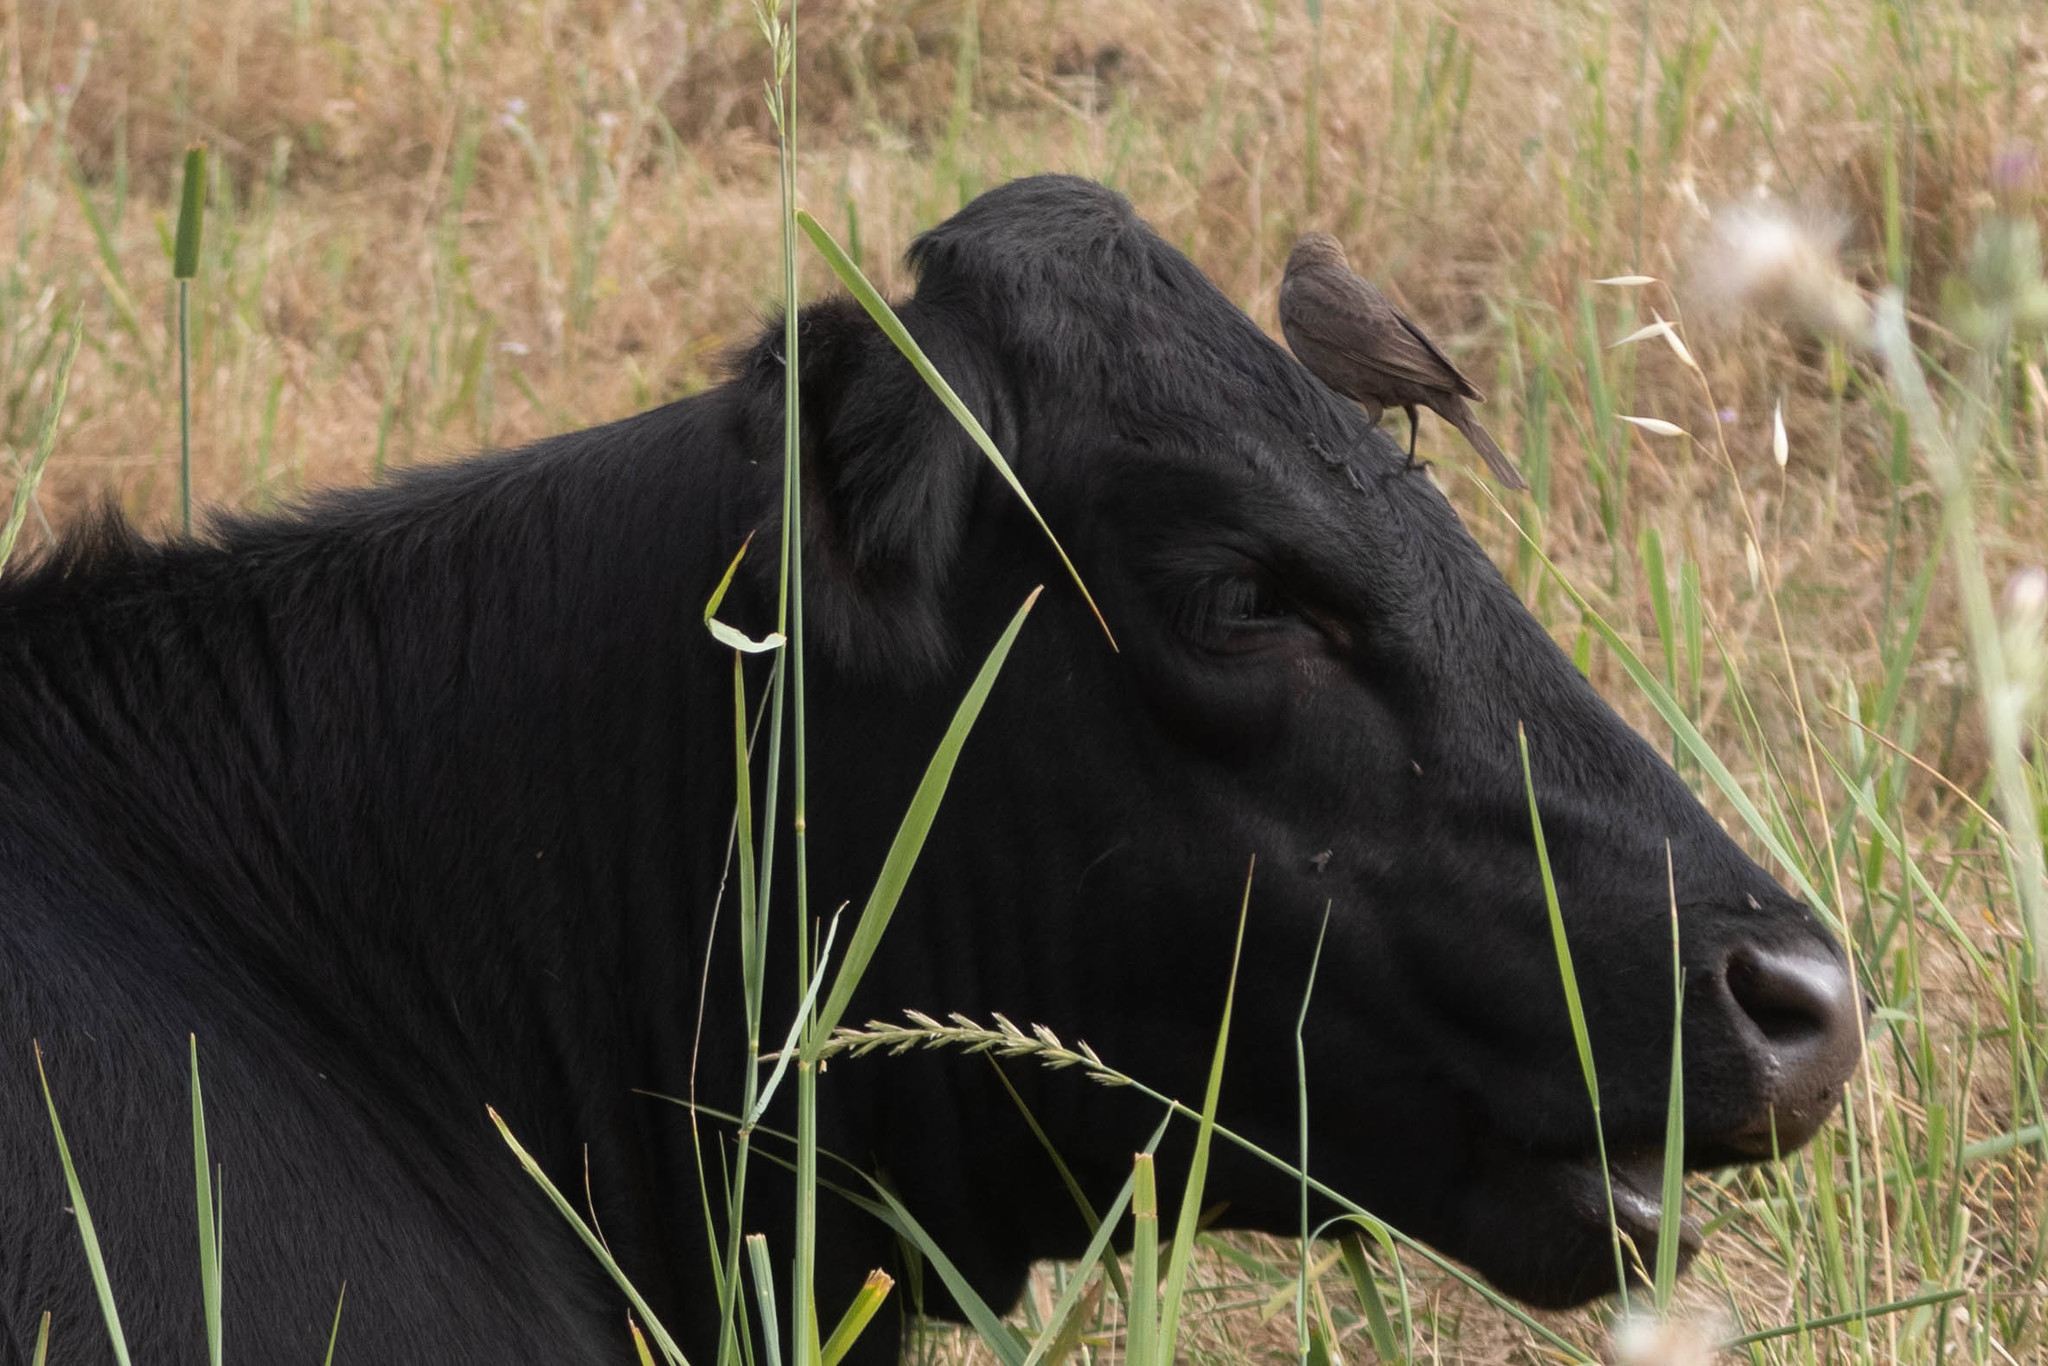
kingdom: Animalia
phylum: Chordata
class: Aves
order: Passeriformes
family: Icteridae
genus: Molothrus
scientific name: Molothrus ater
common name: Brown-headed cowbird
